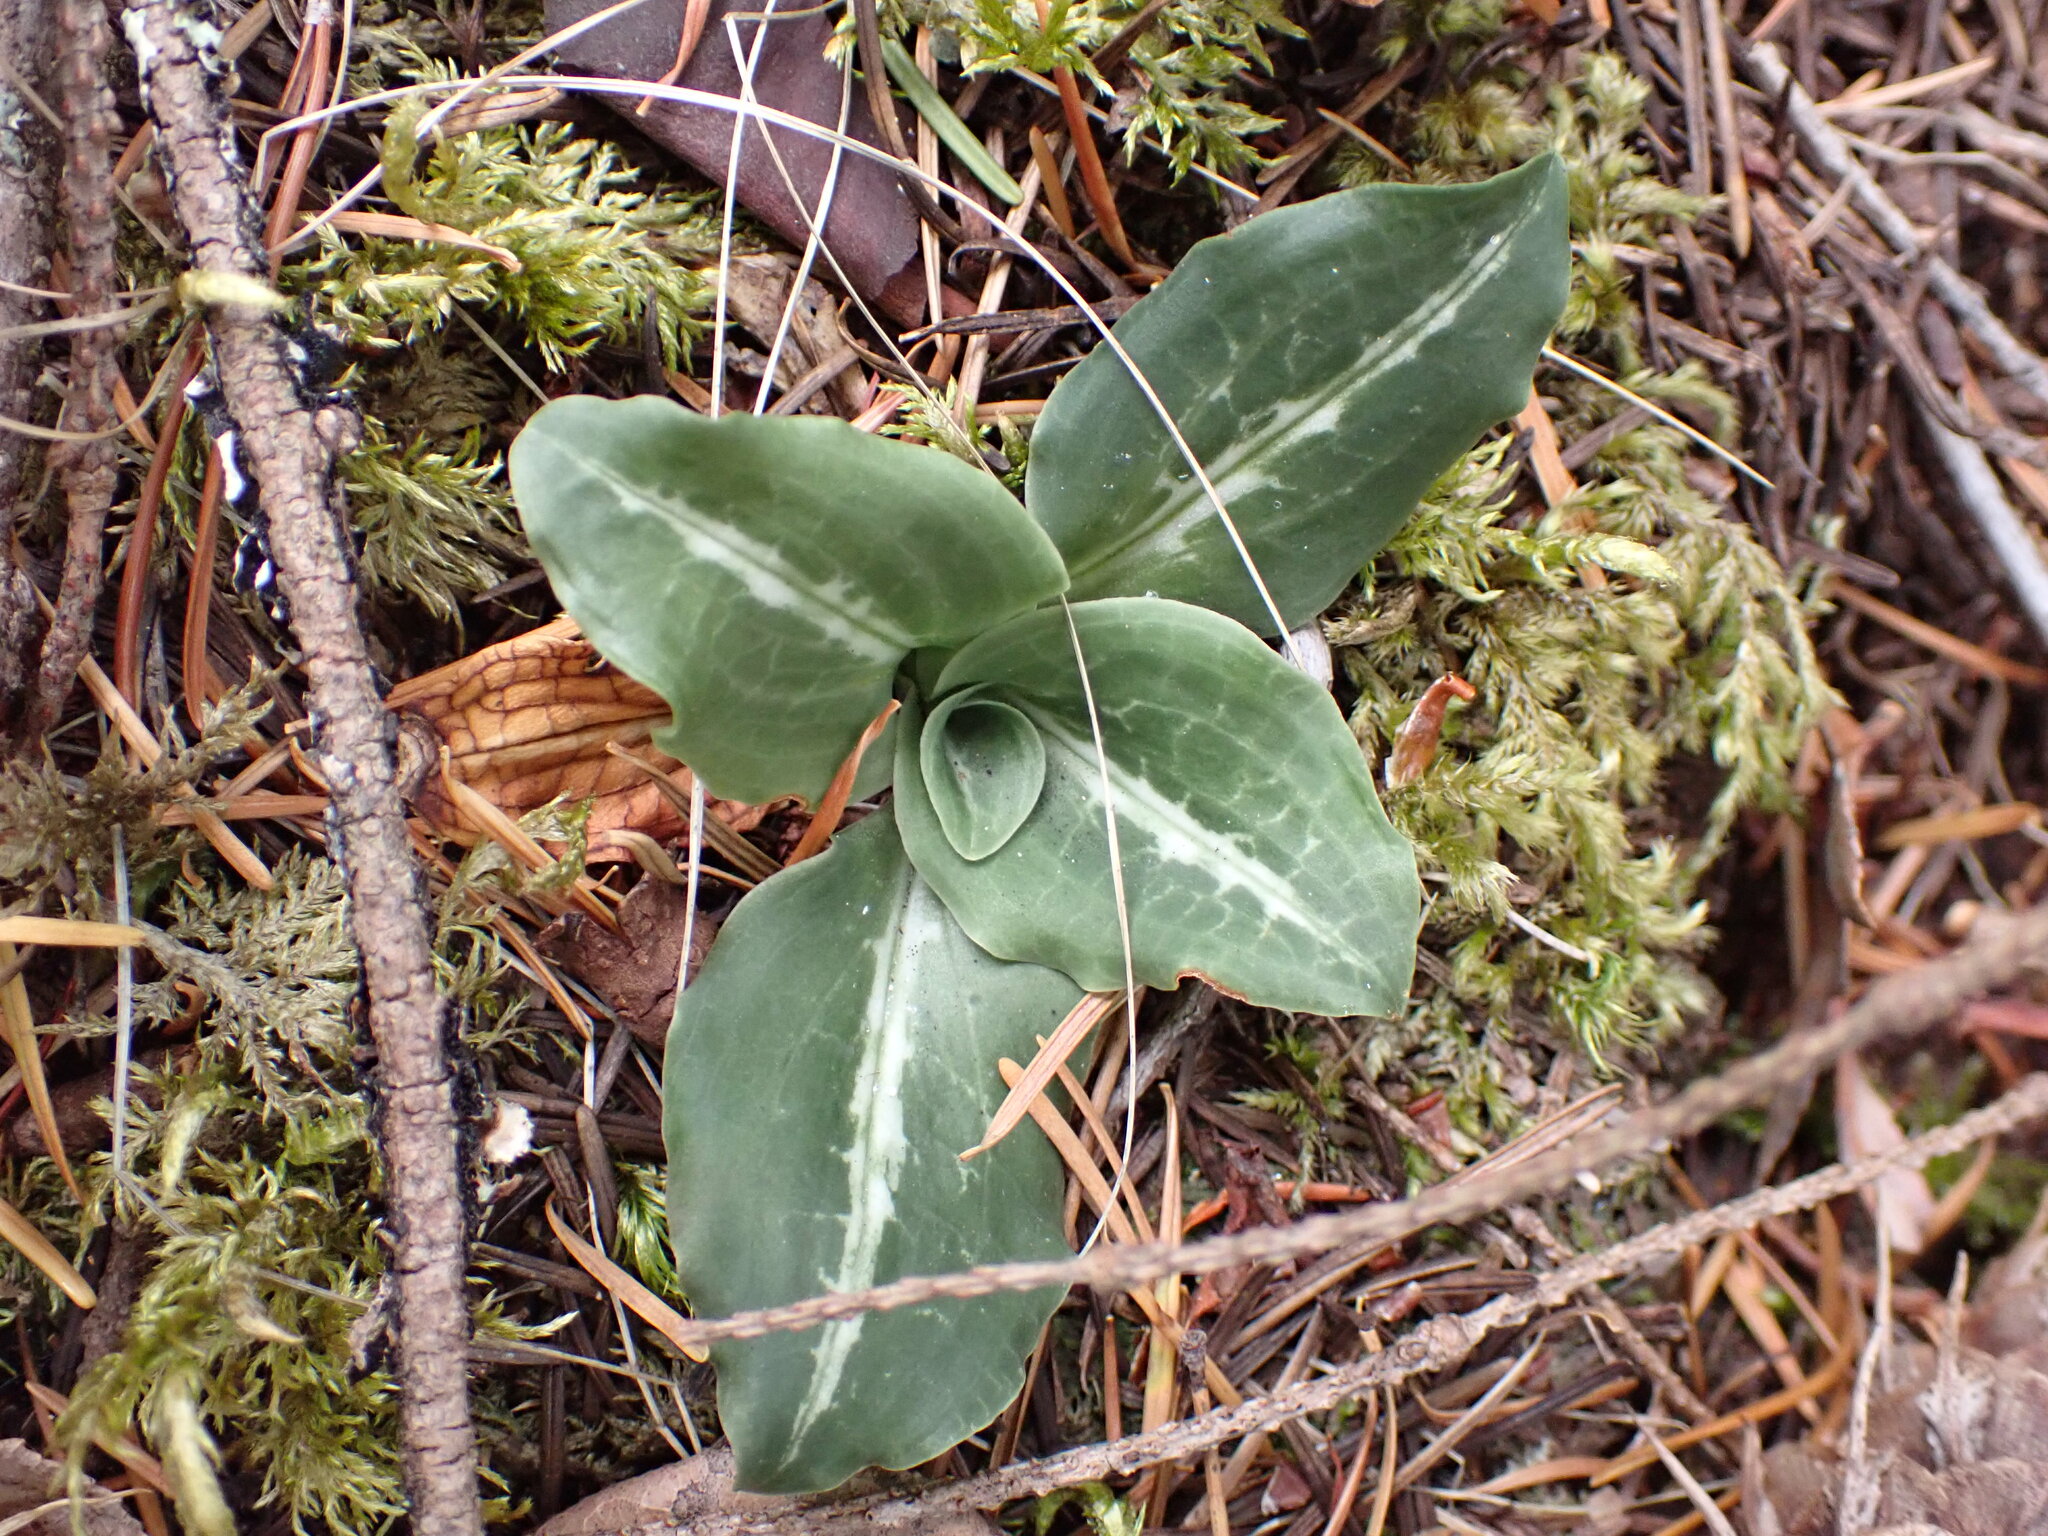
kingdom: Plantae
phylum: Tracheophyta
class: Liliopsida
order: Asparagales
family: Orchidaceae
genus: Goodyera
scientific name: Goodyera oblongifolia
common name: Giant rattlesnake-plantain
